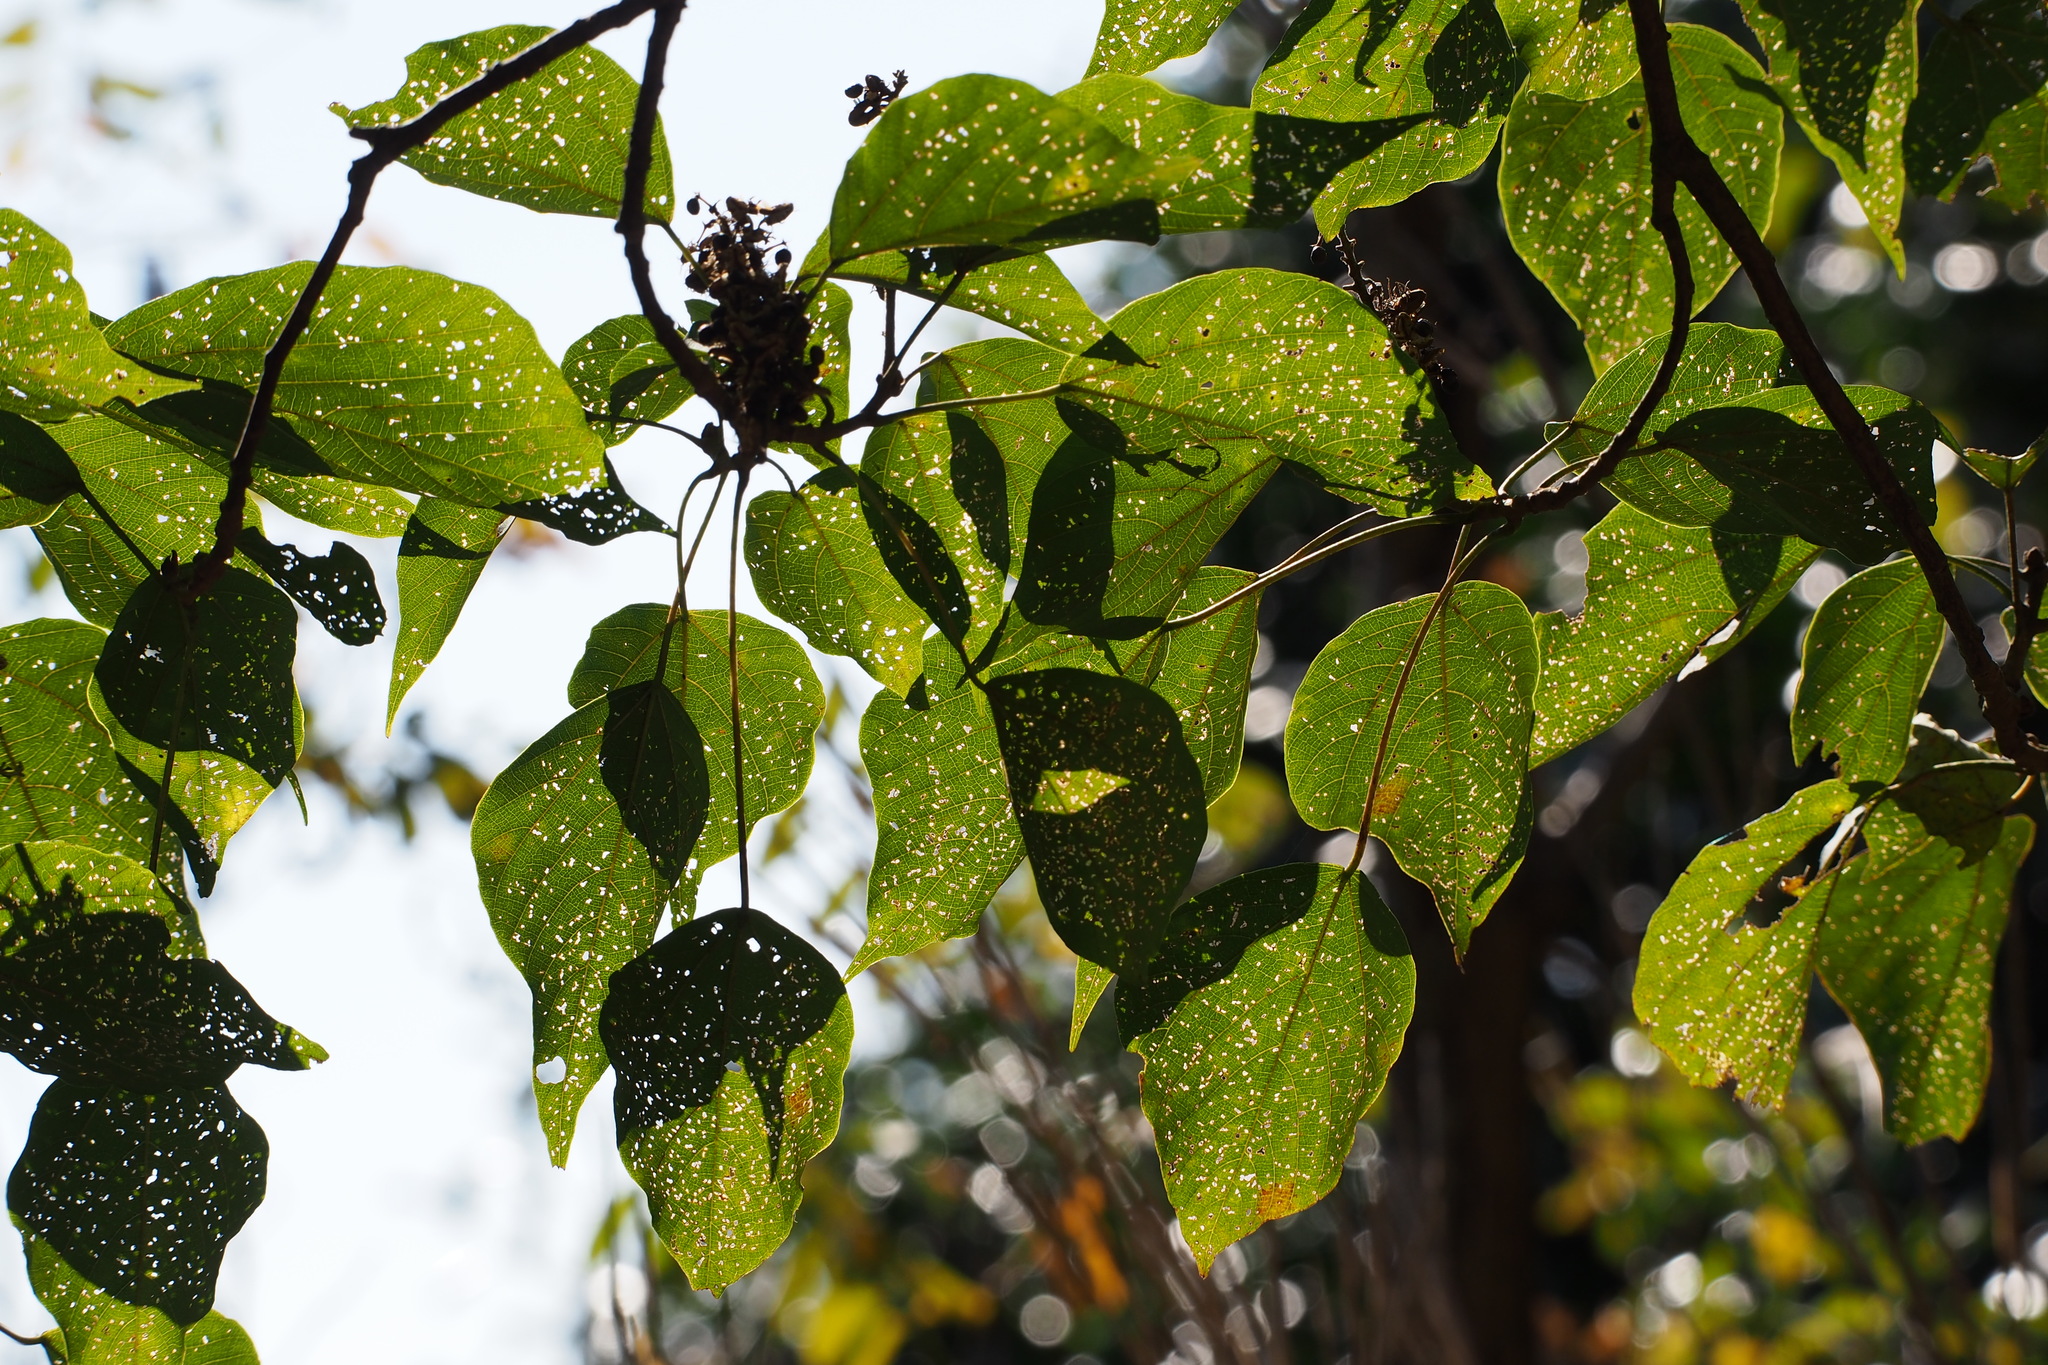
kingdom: Plantae
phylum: Tracheophyta
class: Magnoliopsida
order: Malpighiales
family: Euphorbiaceae
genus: Mallotus
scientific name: Mallotus japonicus
